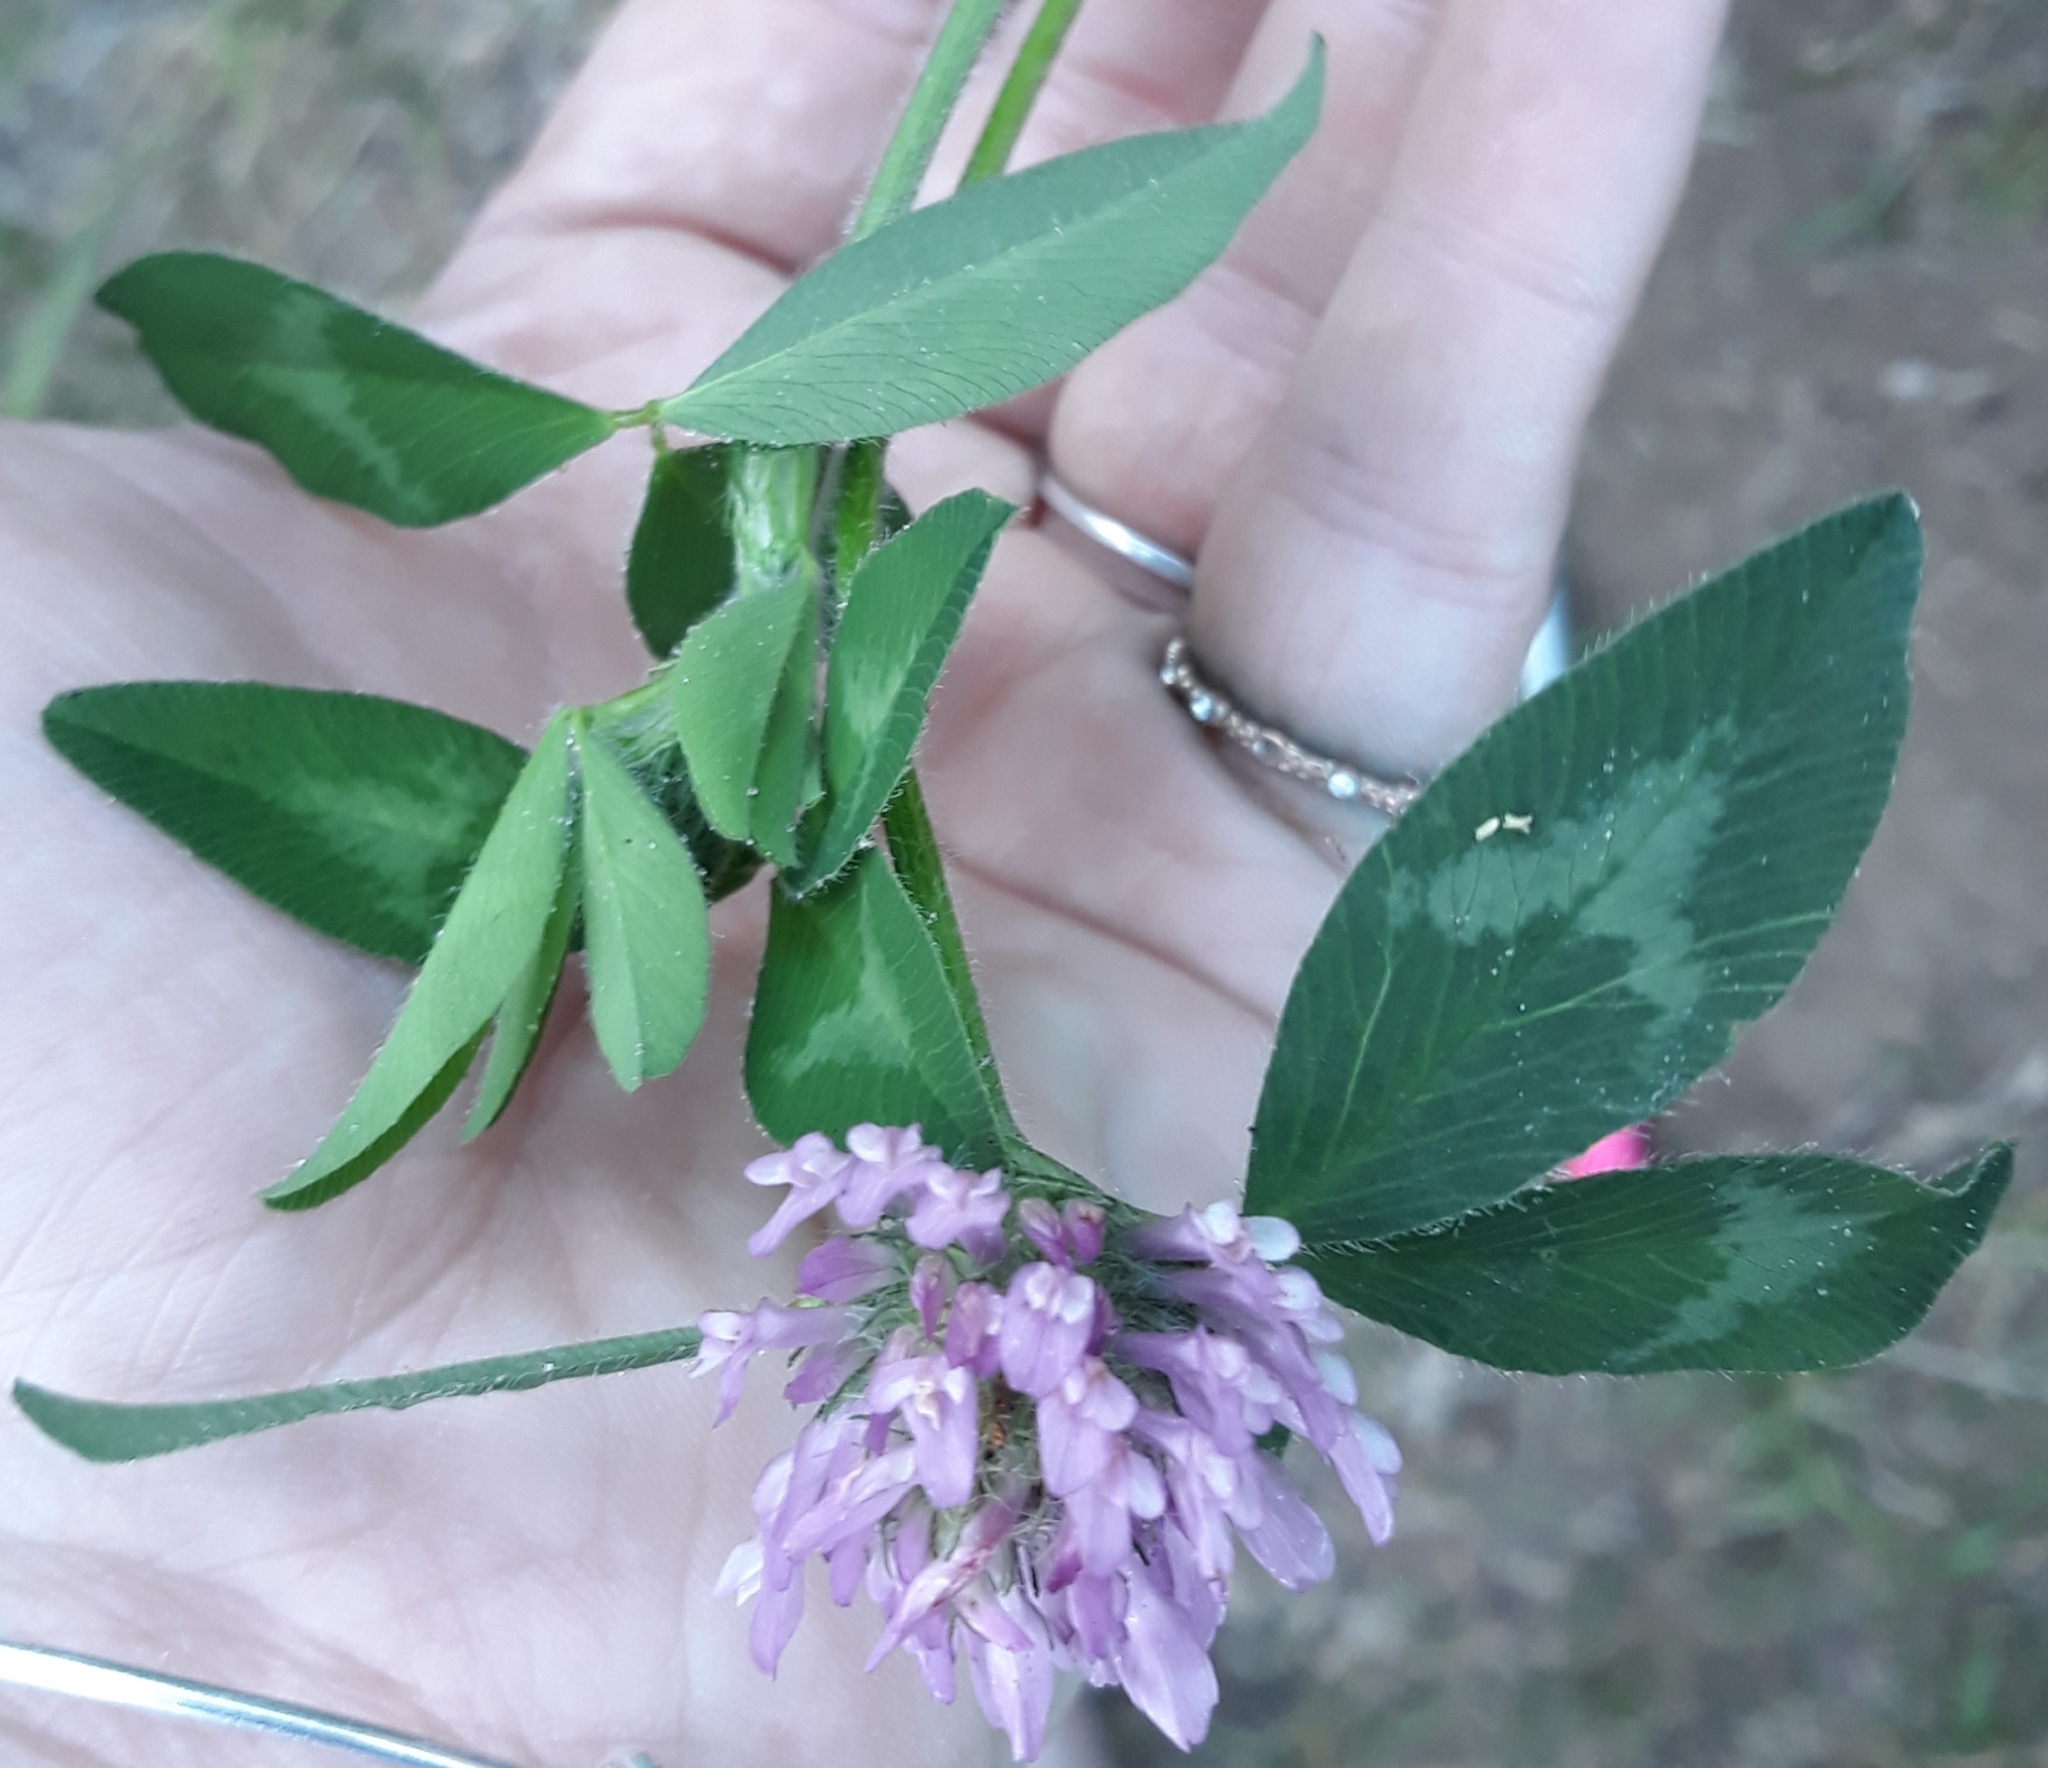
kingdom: Plantae
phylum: Tracheophyta
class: Magnoliopsida
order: Fabales
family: Fabaceae
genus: Trifolium
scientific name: Trifolium pratense
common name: Red clover
